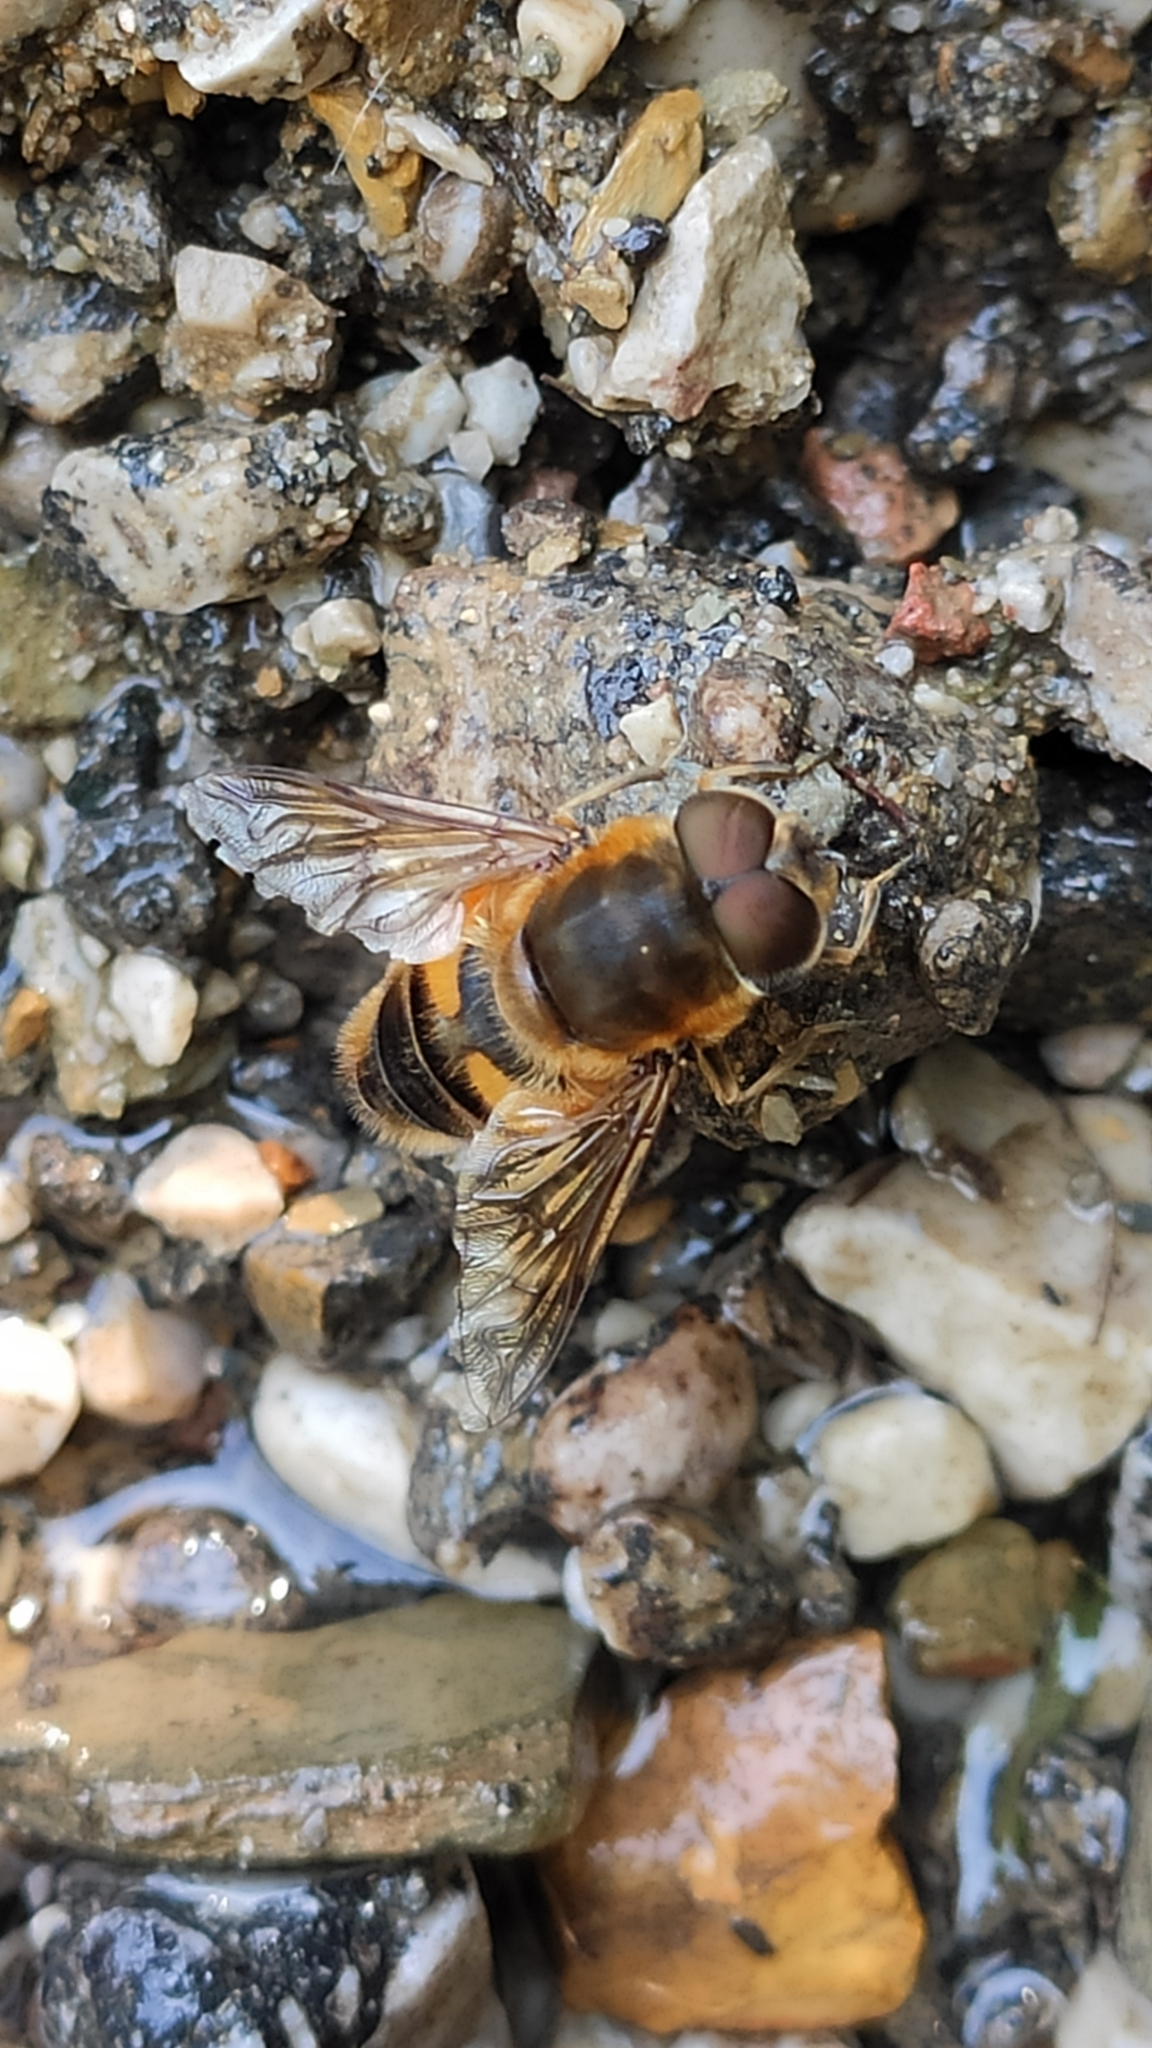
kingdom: Animalia
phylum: Arthropoda
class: Insecta
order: Diptera
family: Syrphidae
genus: Eristalis
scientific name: Eristalis pertinax
